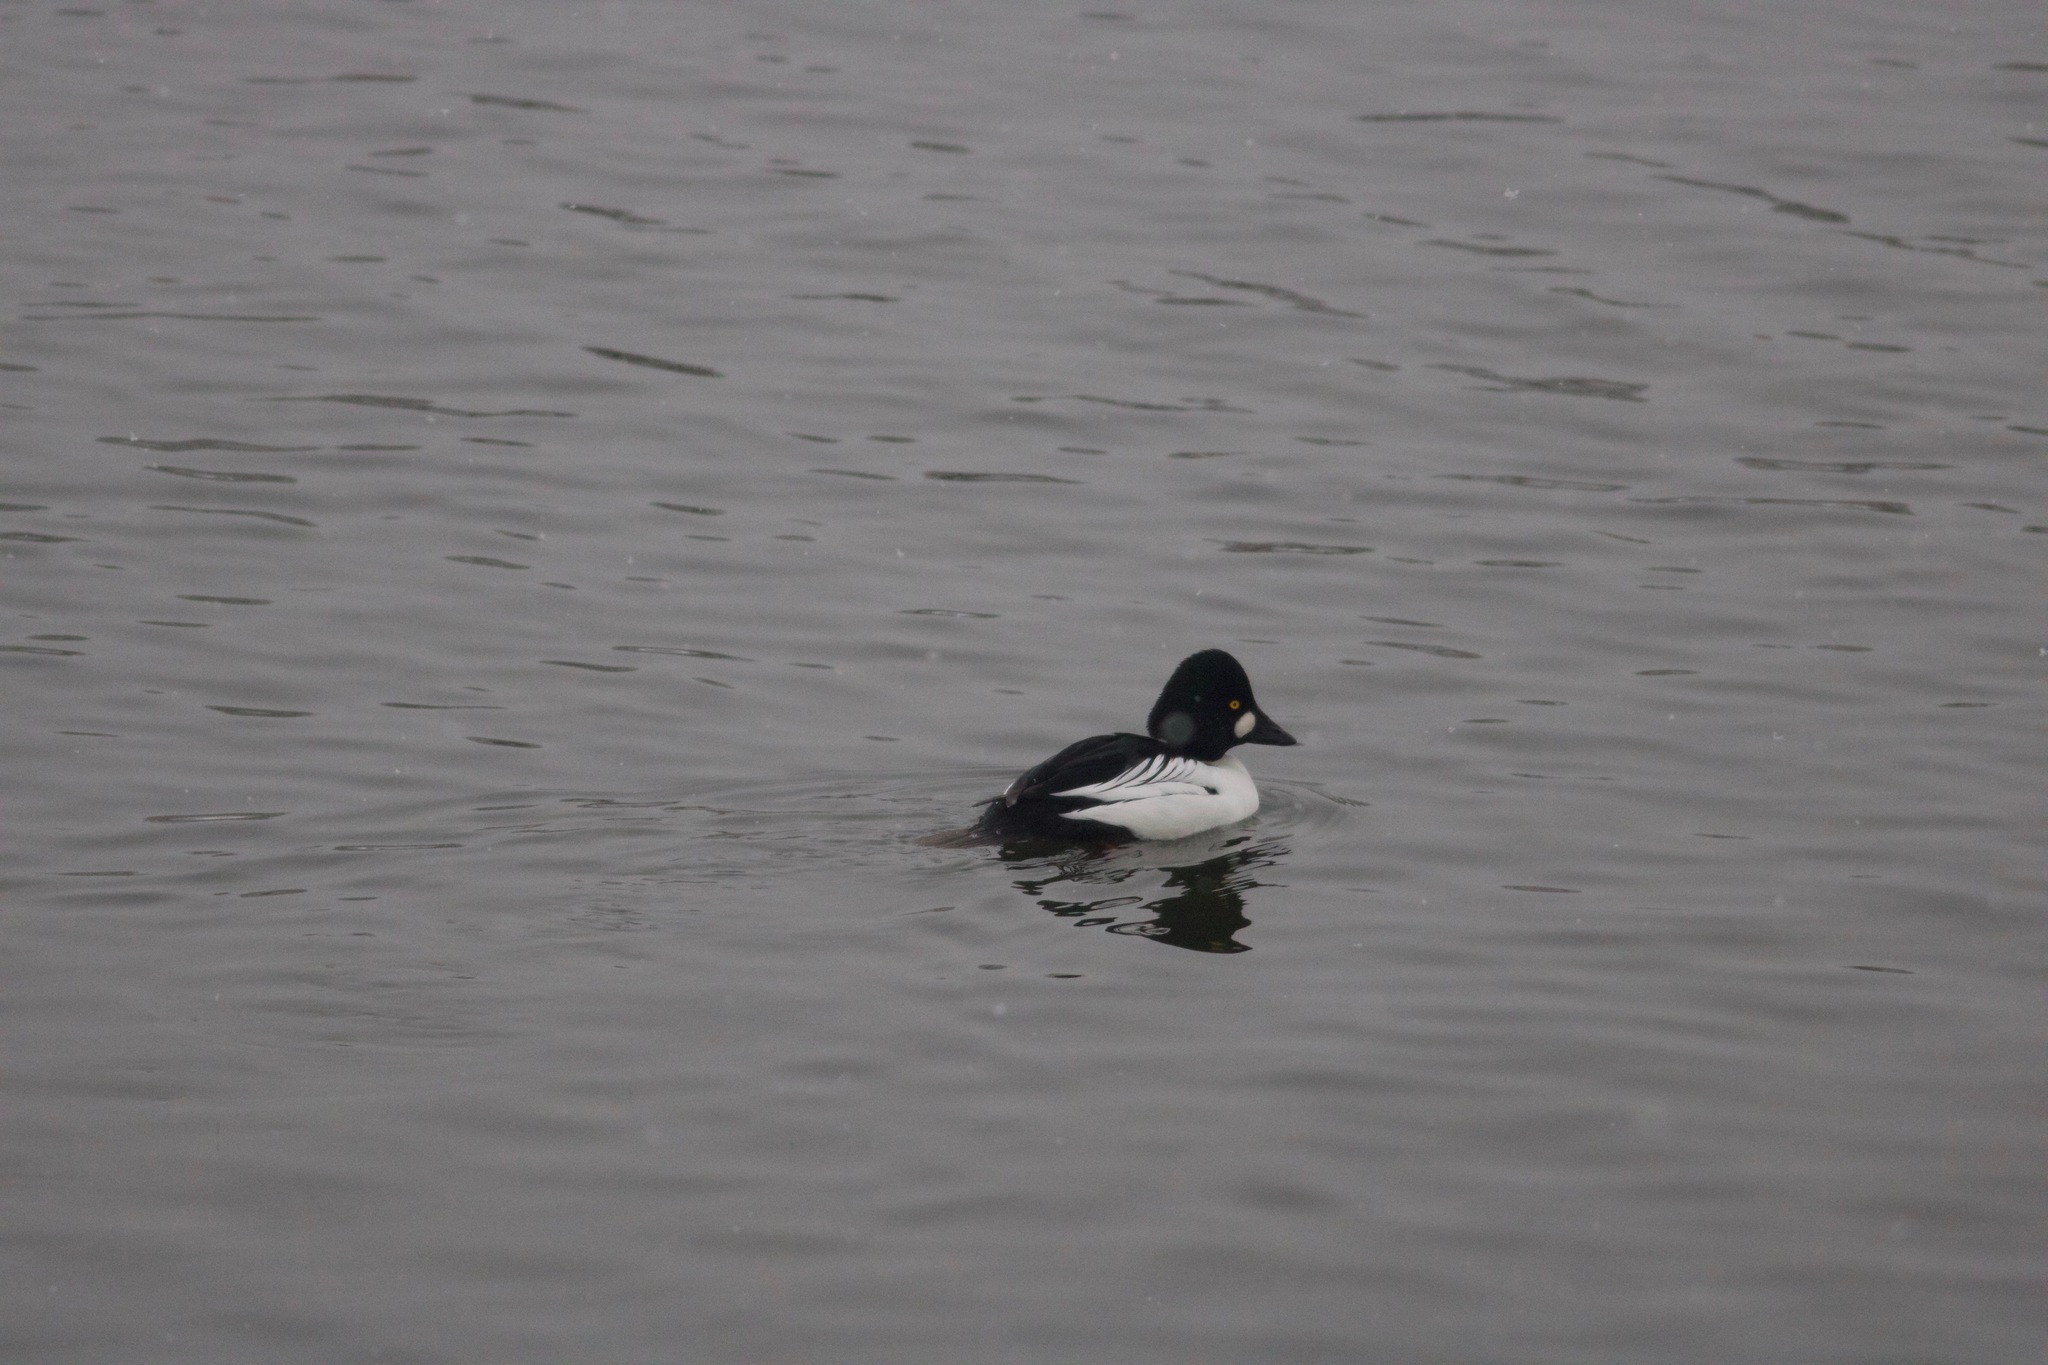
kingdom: Animalia
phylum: Chordata
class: Aves
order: Anseriformes
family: Anatidae
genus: Bucephala
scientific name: Bucephala clangula
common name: Common goldeneye
